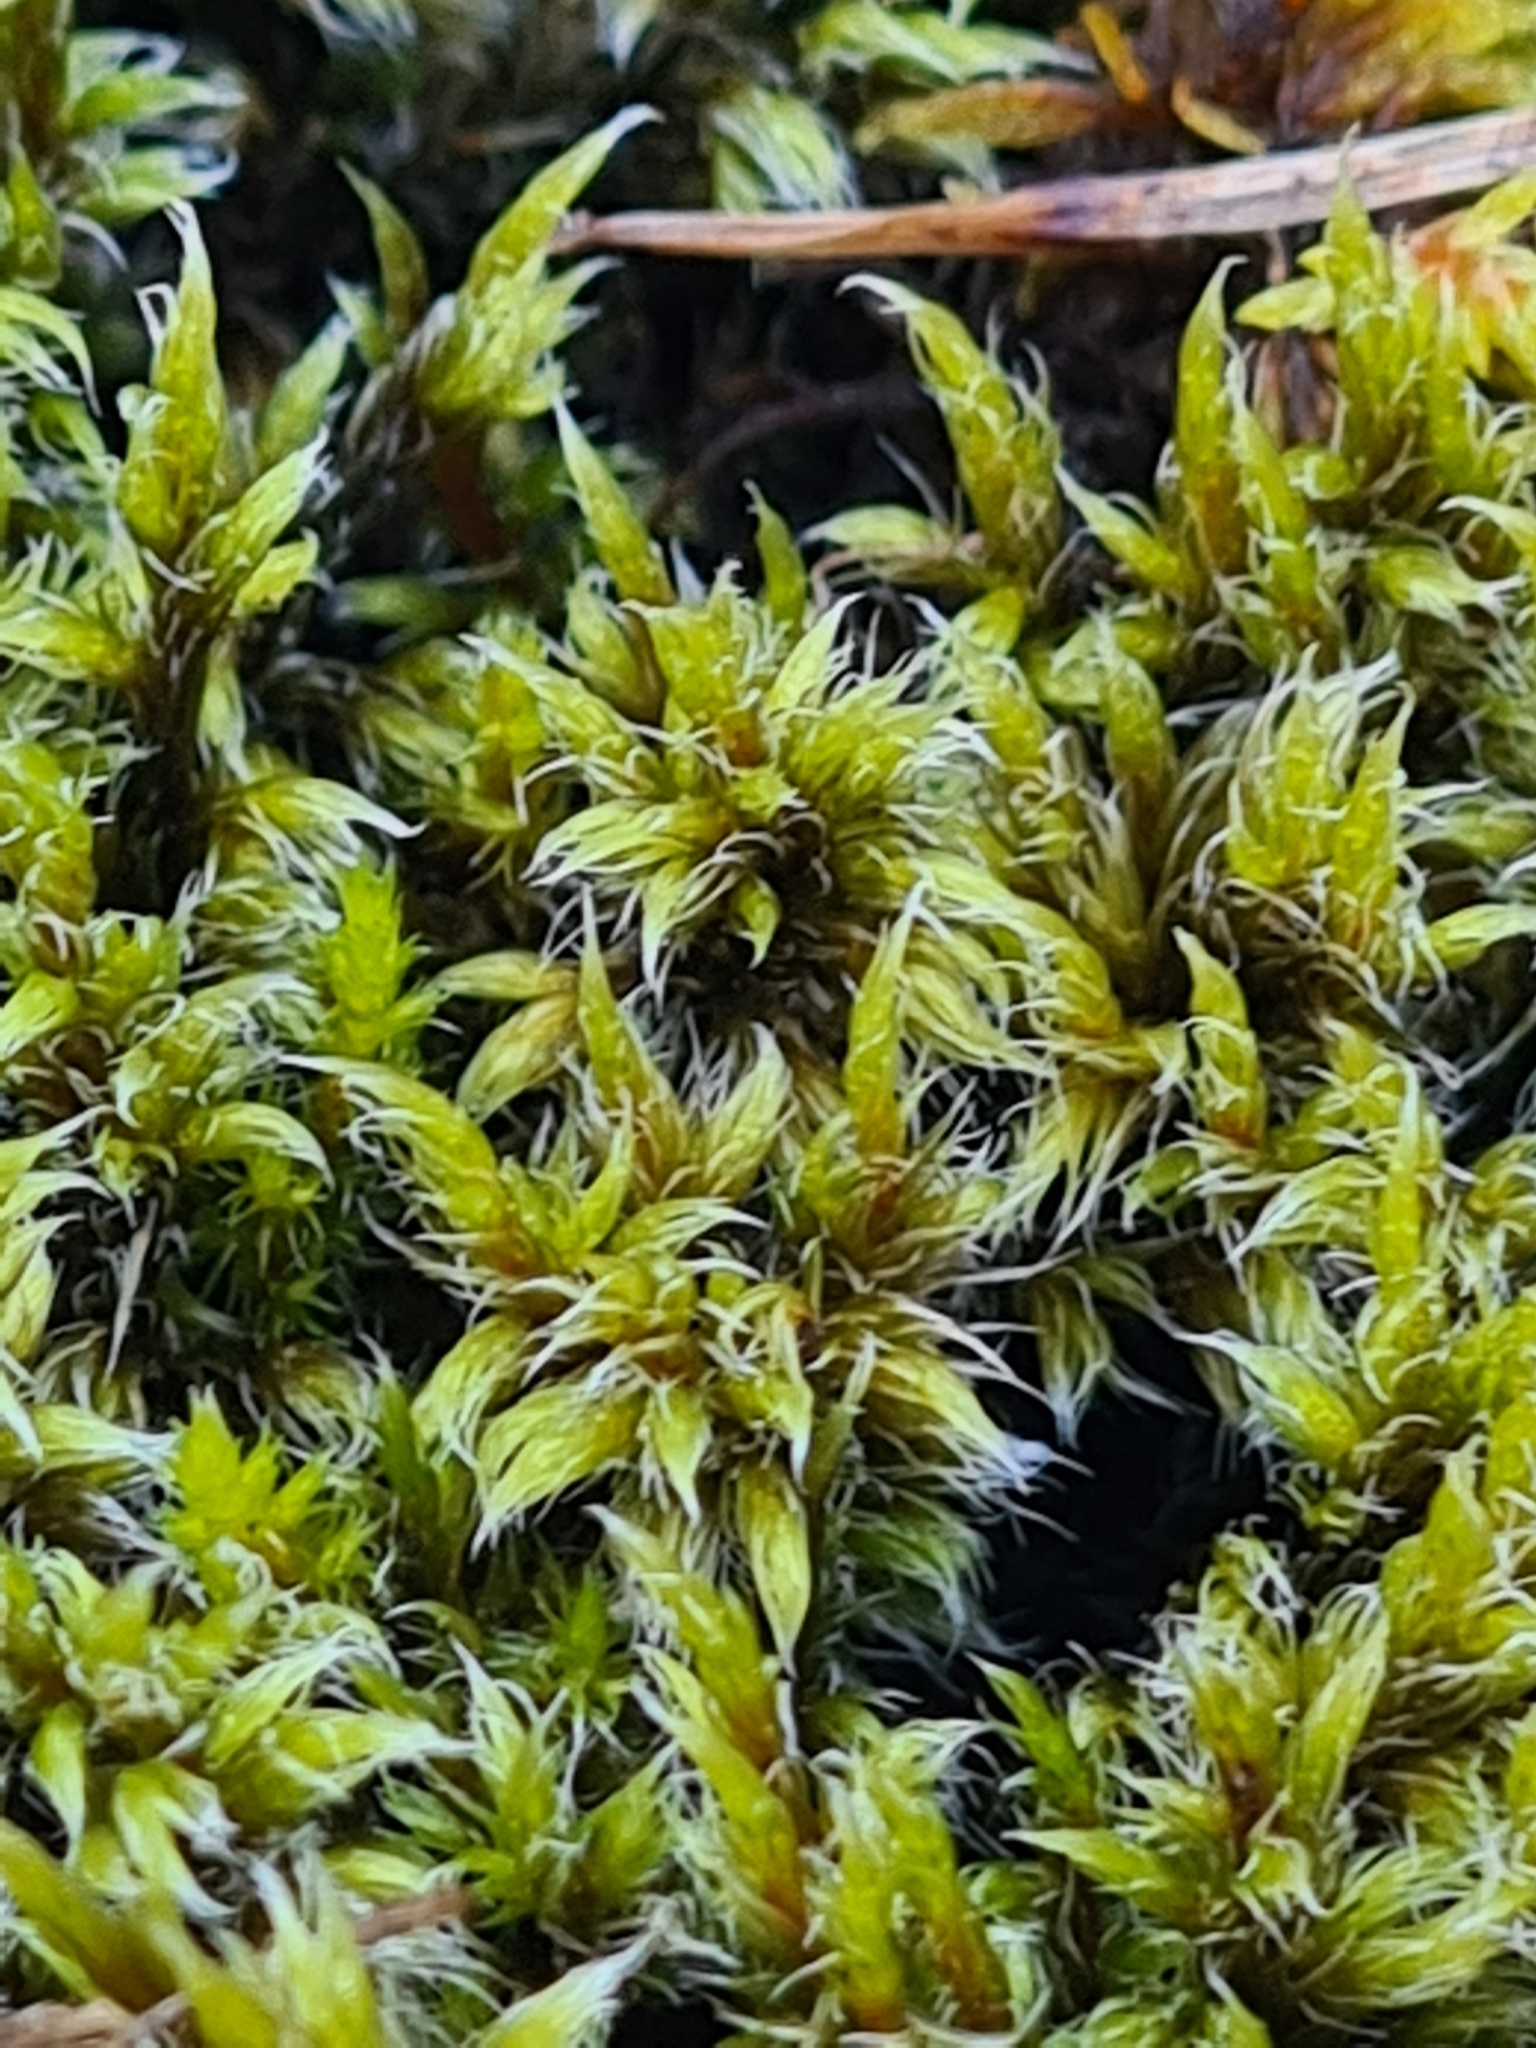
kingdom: Plantae
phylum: Bryophyta
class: Bryopsida
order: Grimmiales
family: Grimmiaceae
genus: Racomitrium
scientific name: Racomitrium lanuginosum
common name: Hoary rock moss
